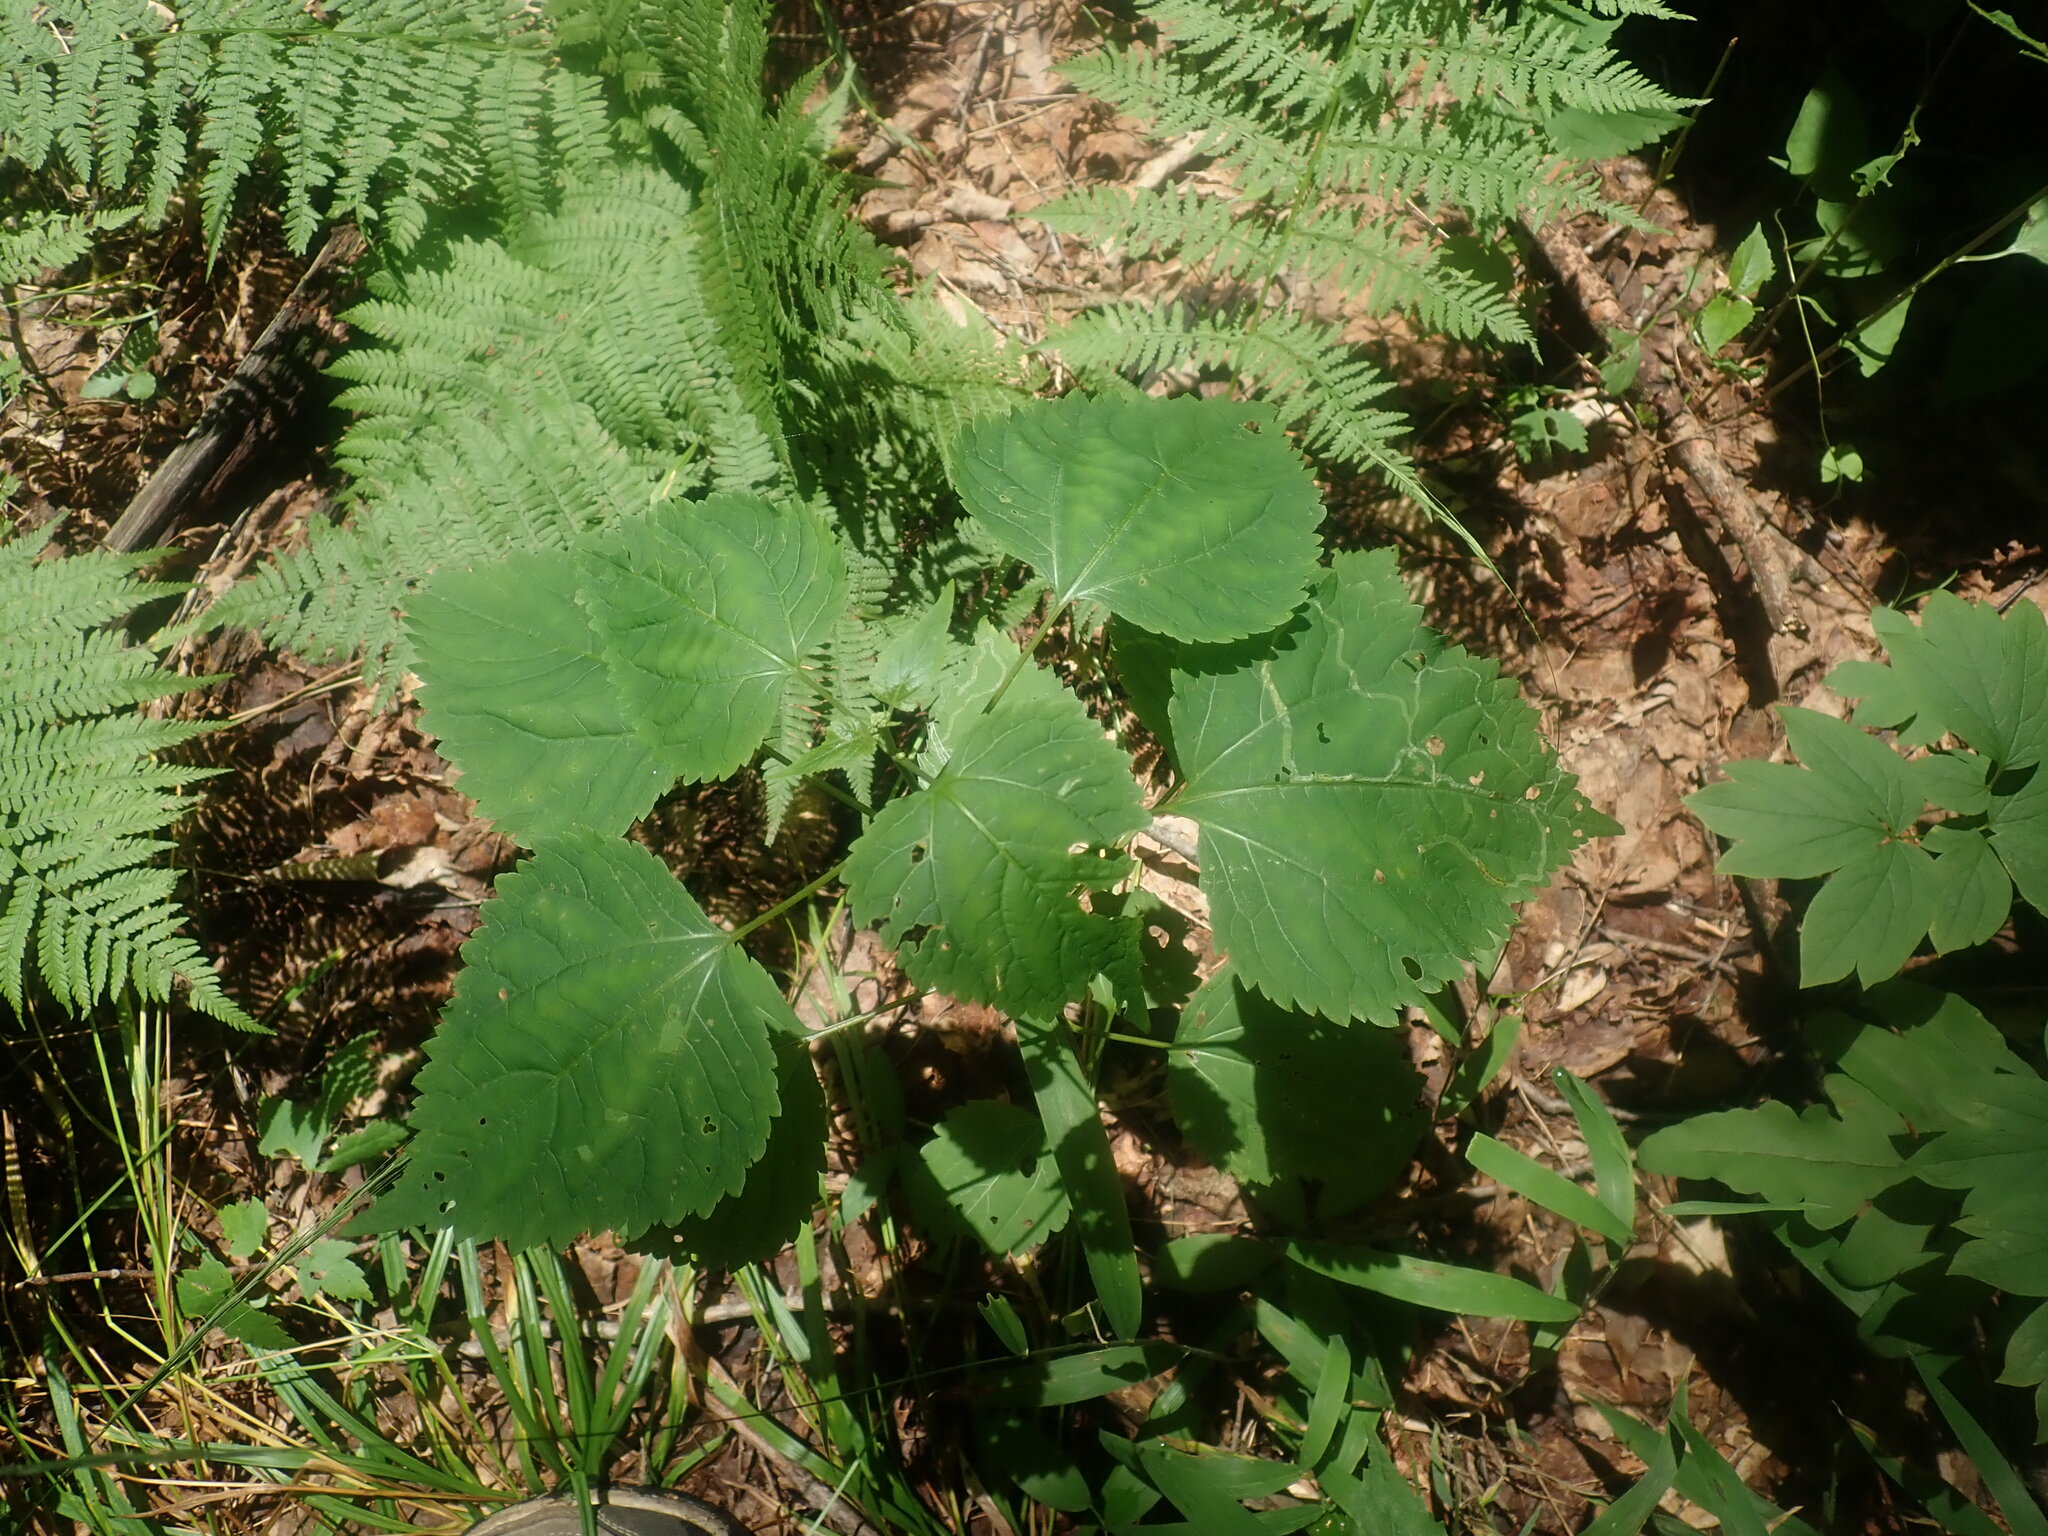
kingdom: Plantae
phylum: Tracheophyta
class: Magnoliopsida
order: Asterales
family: Asteraceae
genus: Ageratina
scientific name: Ageratina altissima
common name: White snakeroot
